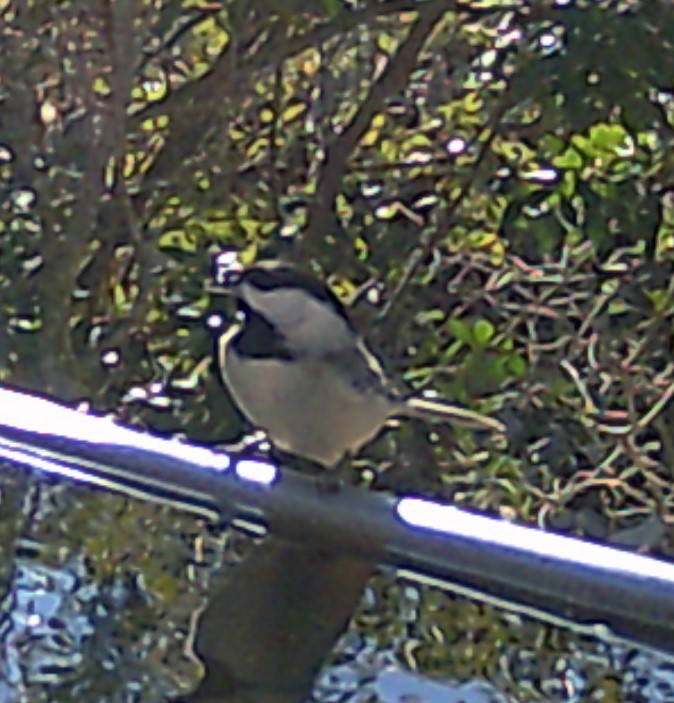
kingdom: Animalia
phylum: Chordata
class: Aves
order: Passeriformes
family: Paridae
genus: Poecile
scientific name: Poecile carolinensis
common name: Carolina chickadee
